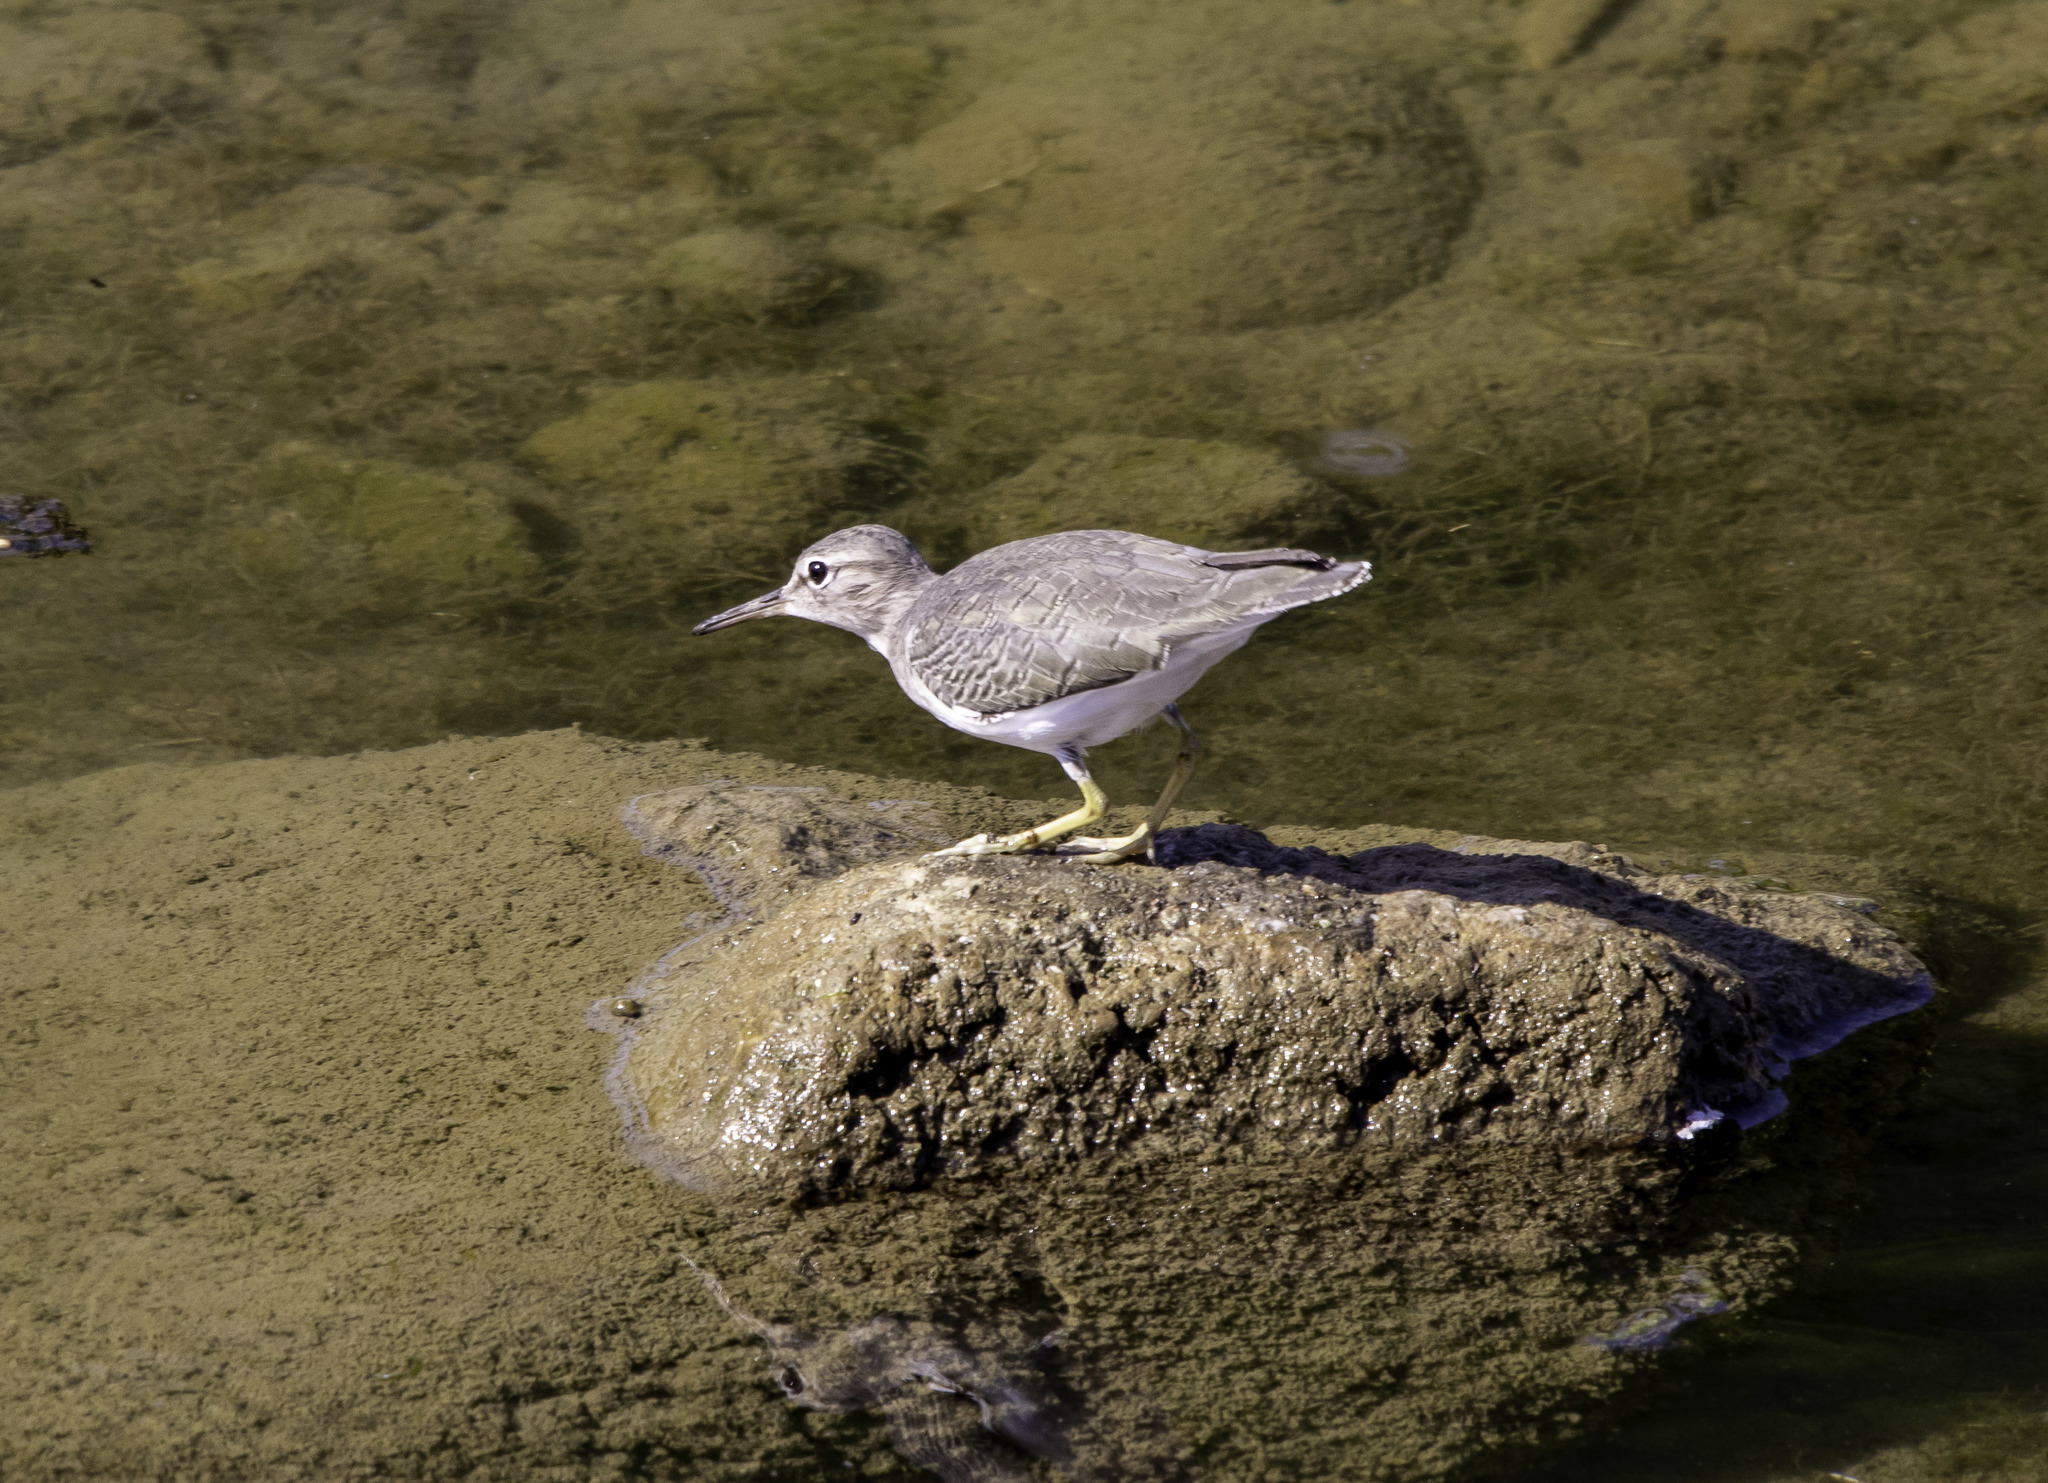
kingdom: Animalia
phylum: Chordata
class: Aves
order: Charadriiformes
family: Scolopacidae
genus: Actitis
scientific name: Actitis macularius
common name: Spotted sandpiper
